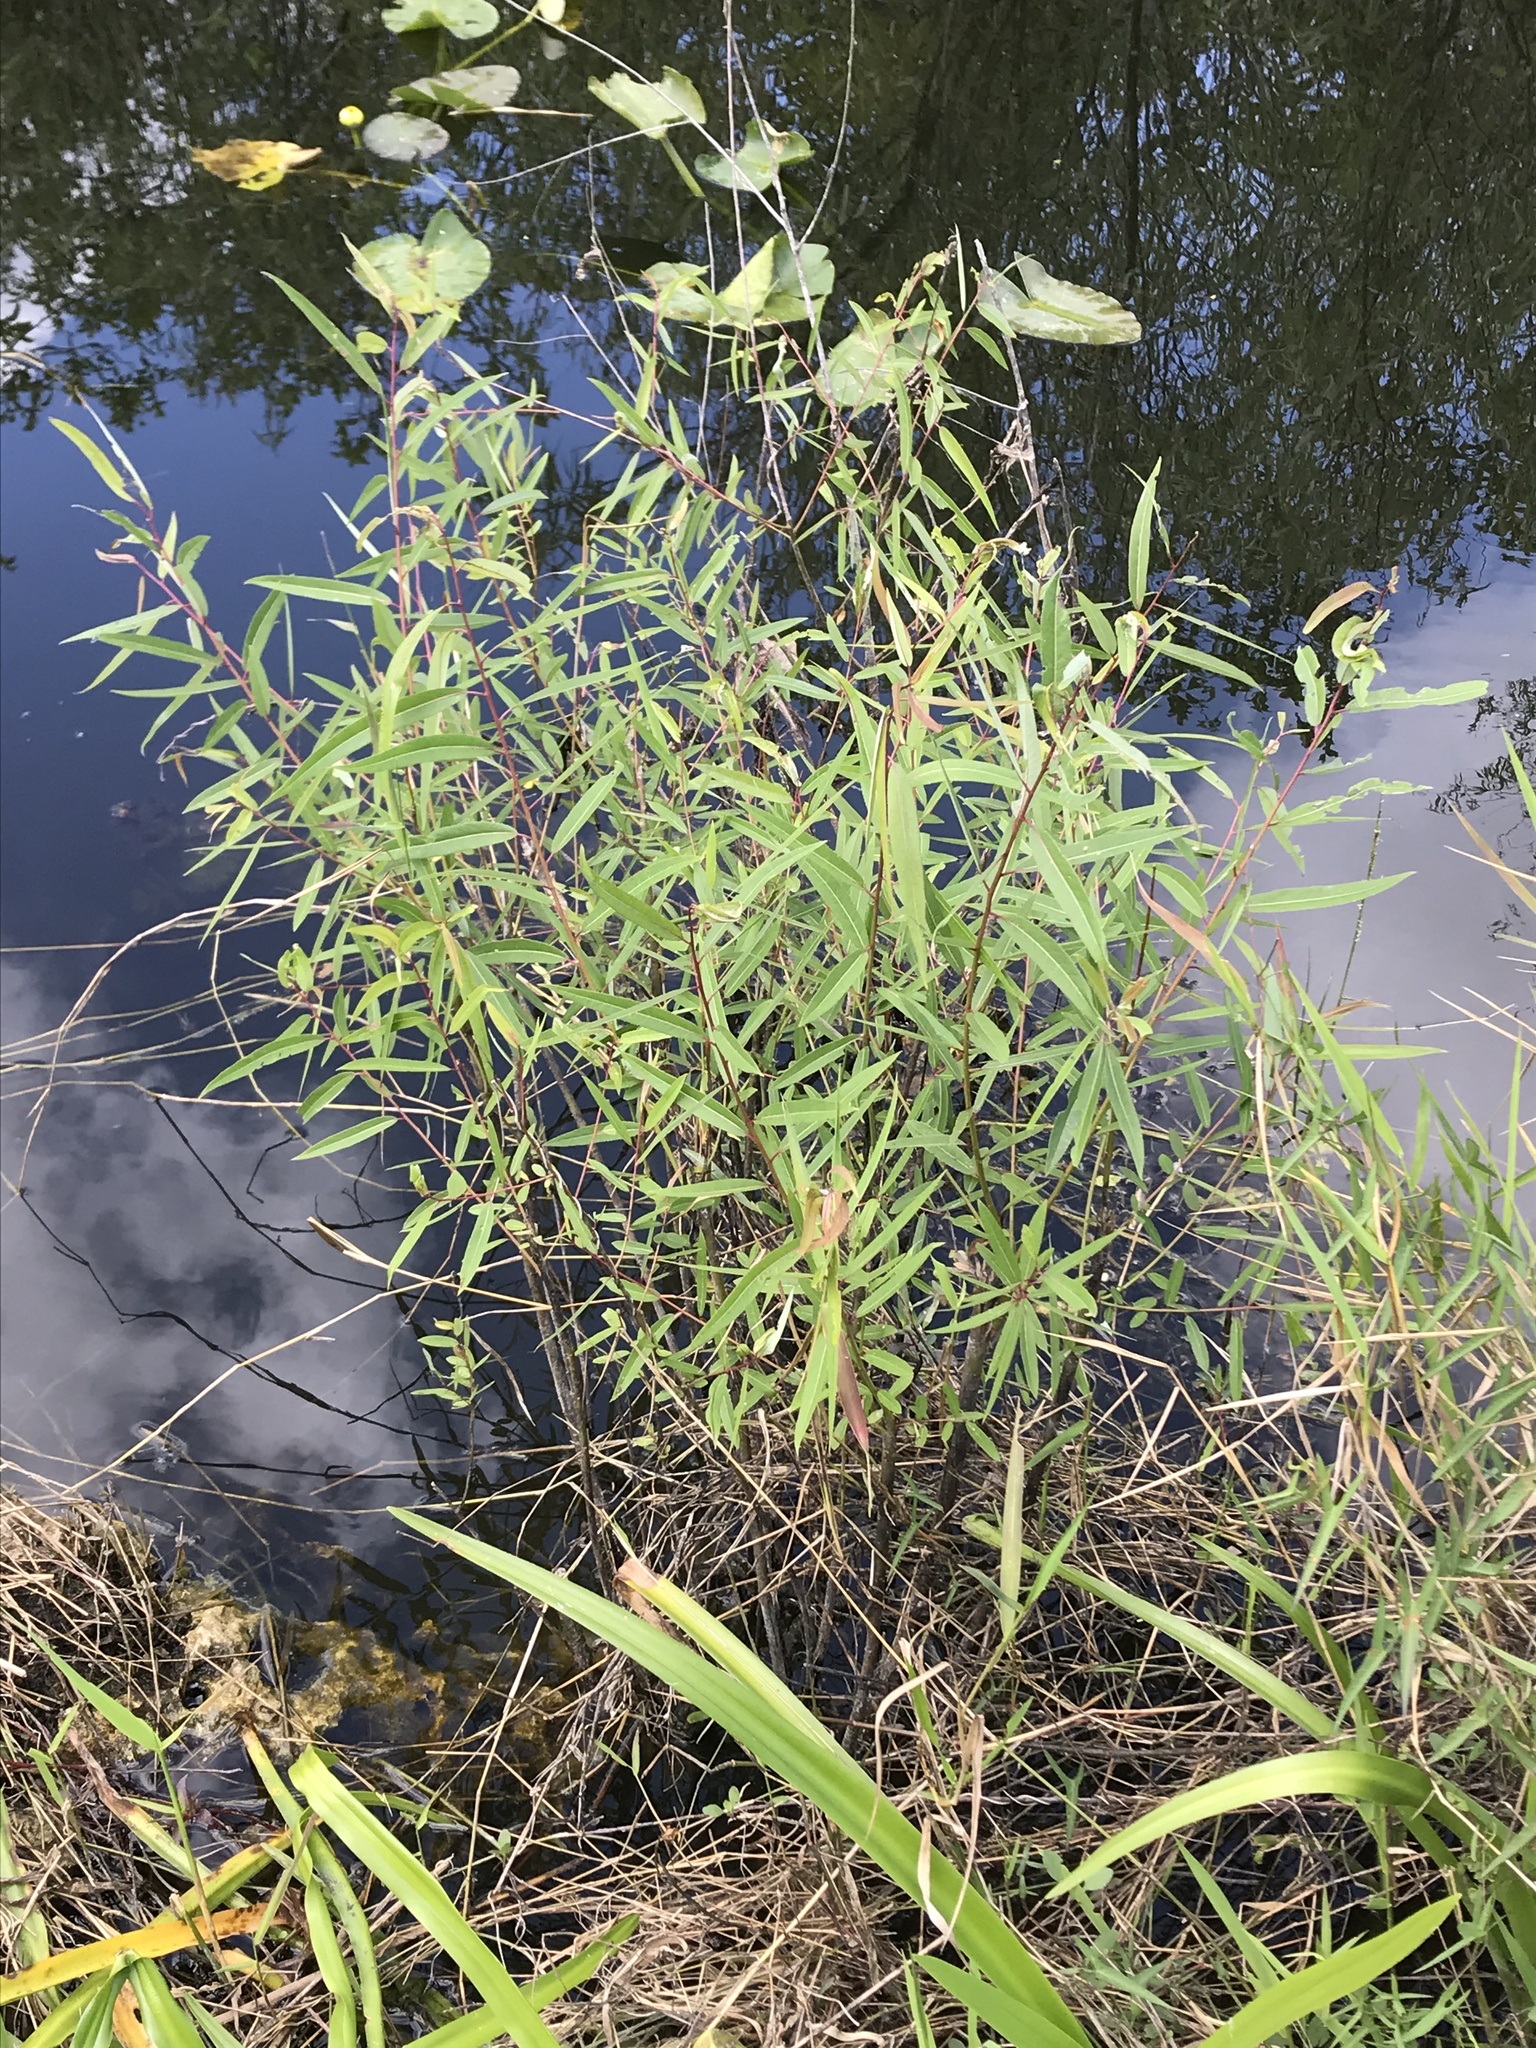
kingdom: Plantae
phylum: Tracheophyta
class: Magnoliopsida
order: Malpighiales
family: Salicaceae
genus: Salix
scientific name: Salix caroliniana
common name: Carolina willow
